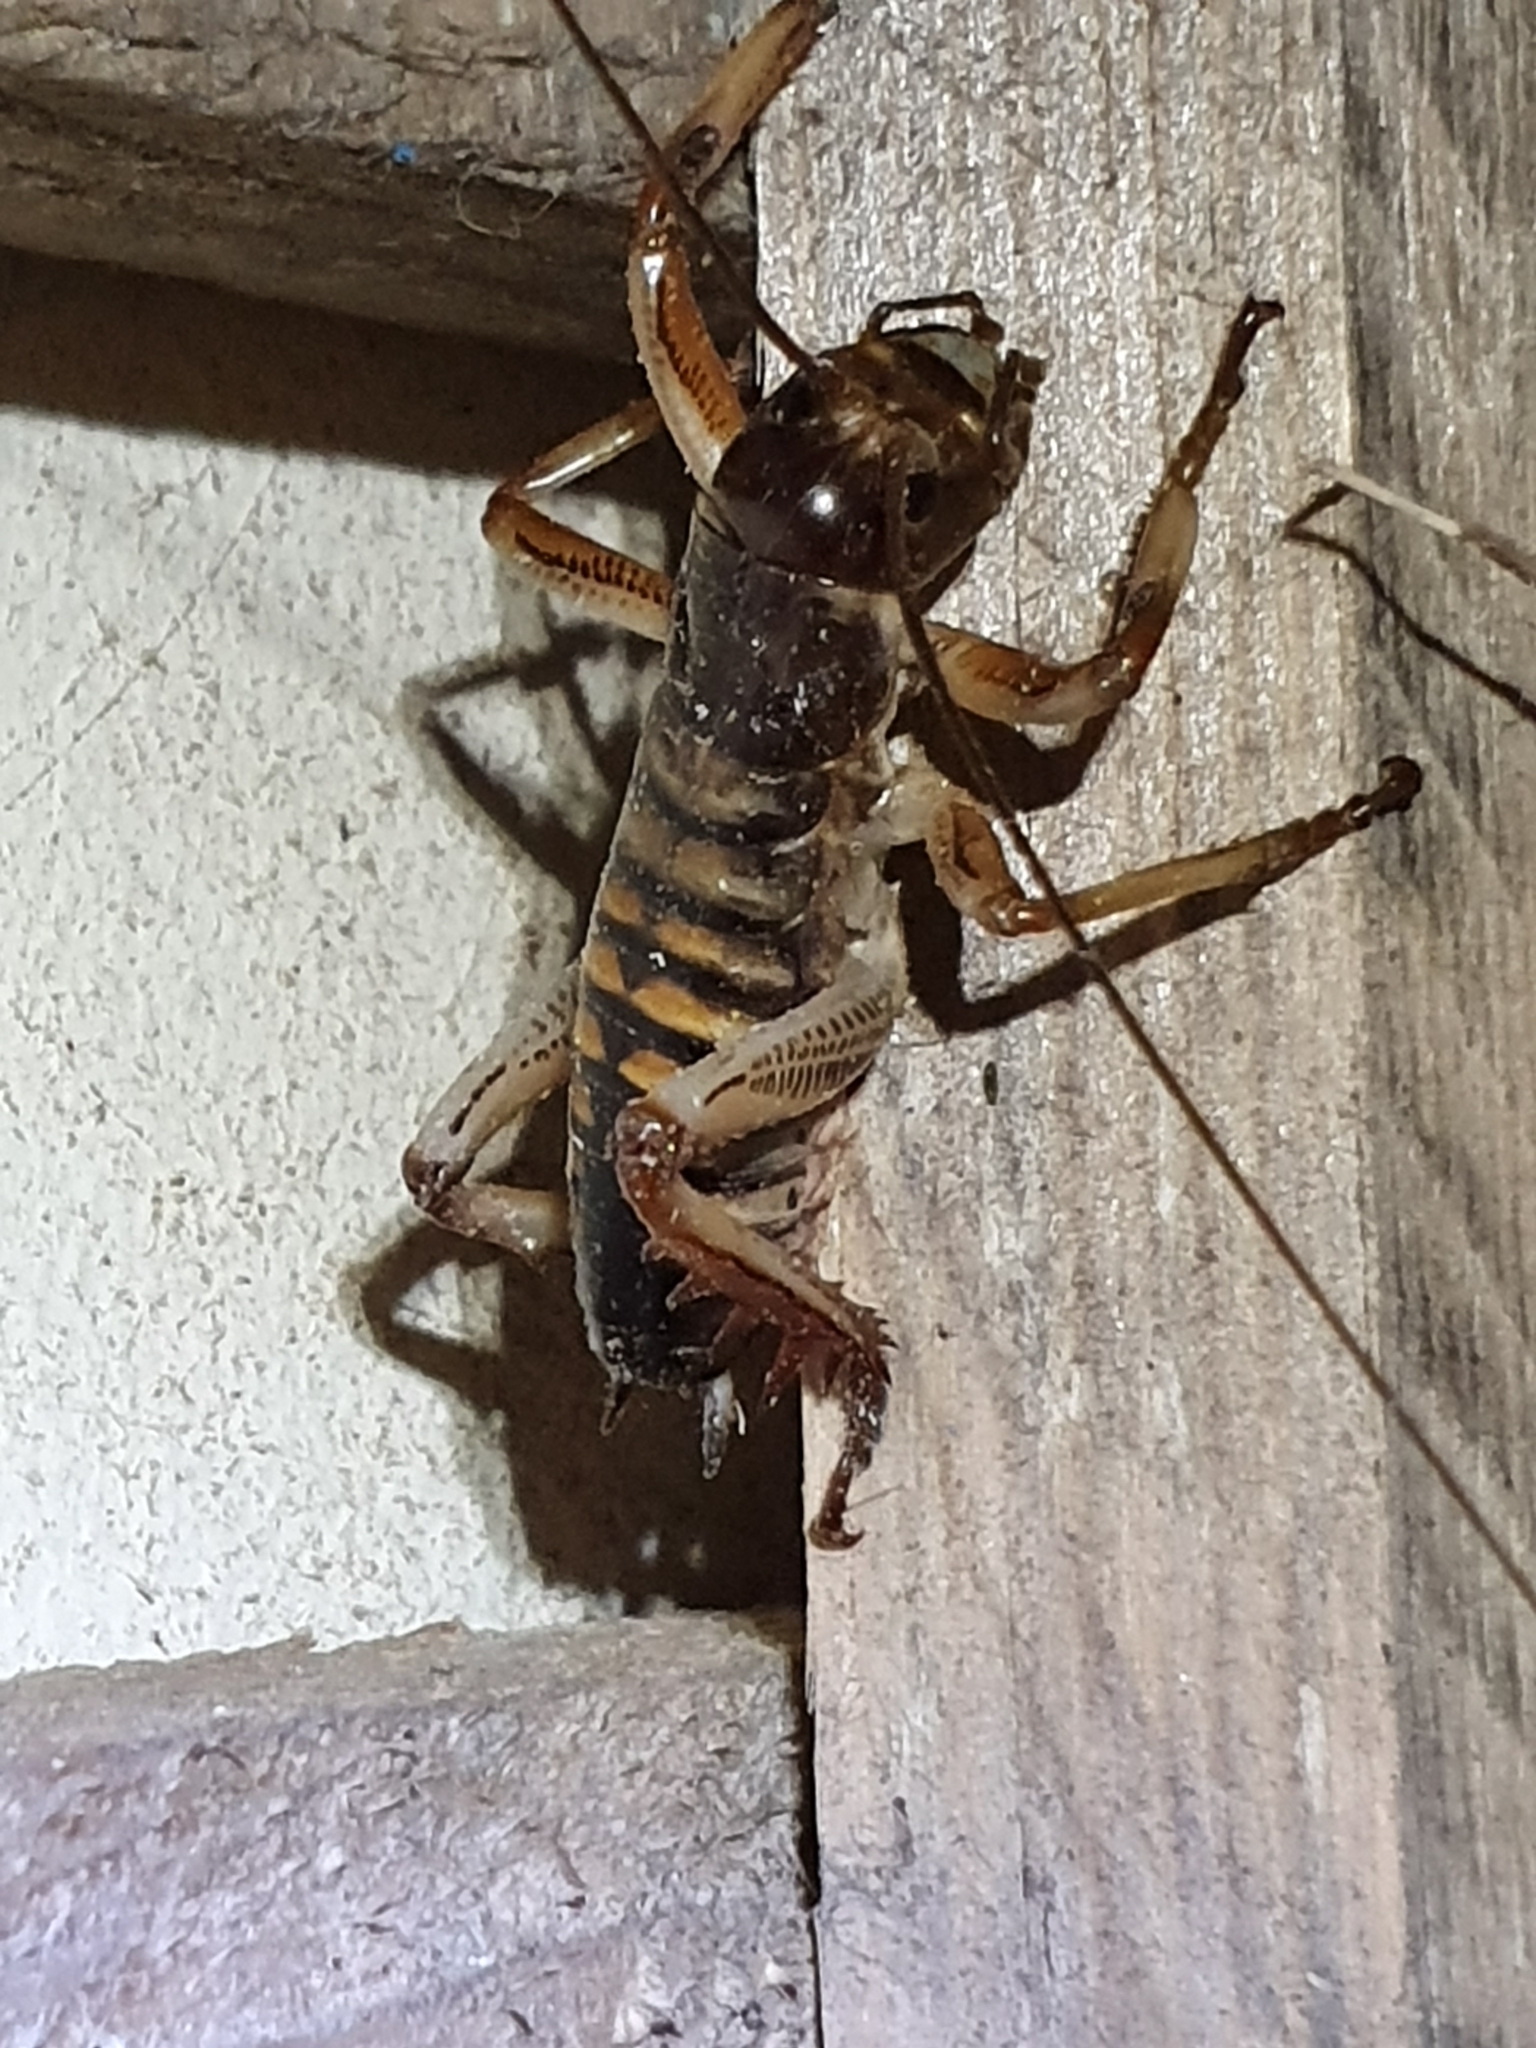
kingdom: Animalia
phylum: Arthropoda
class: Insecta
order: Orthoptera
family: Anostostomatidae
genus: Hemideina
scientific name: Hemideina crassidens
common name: Wellington tree weta
